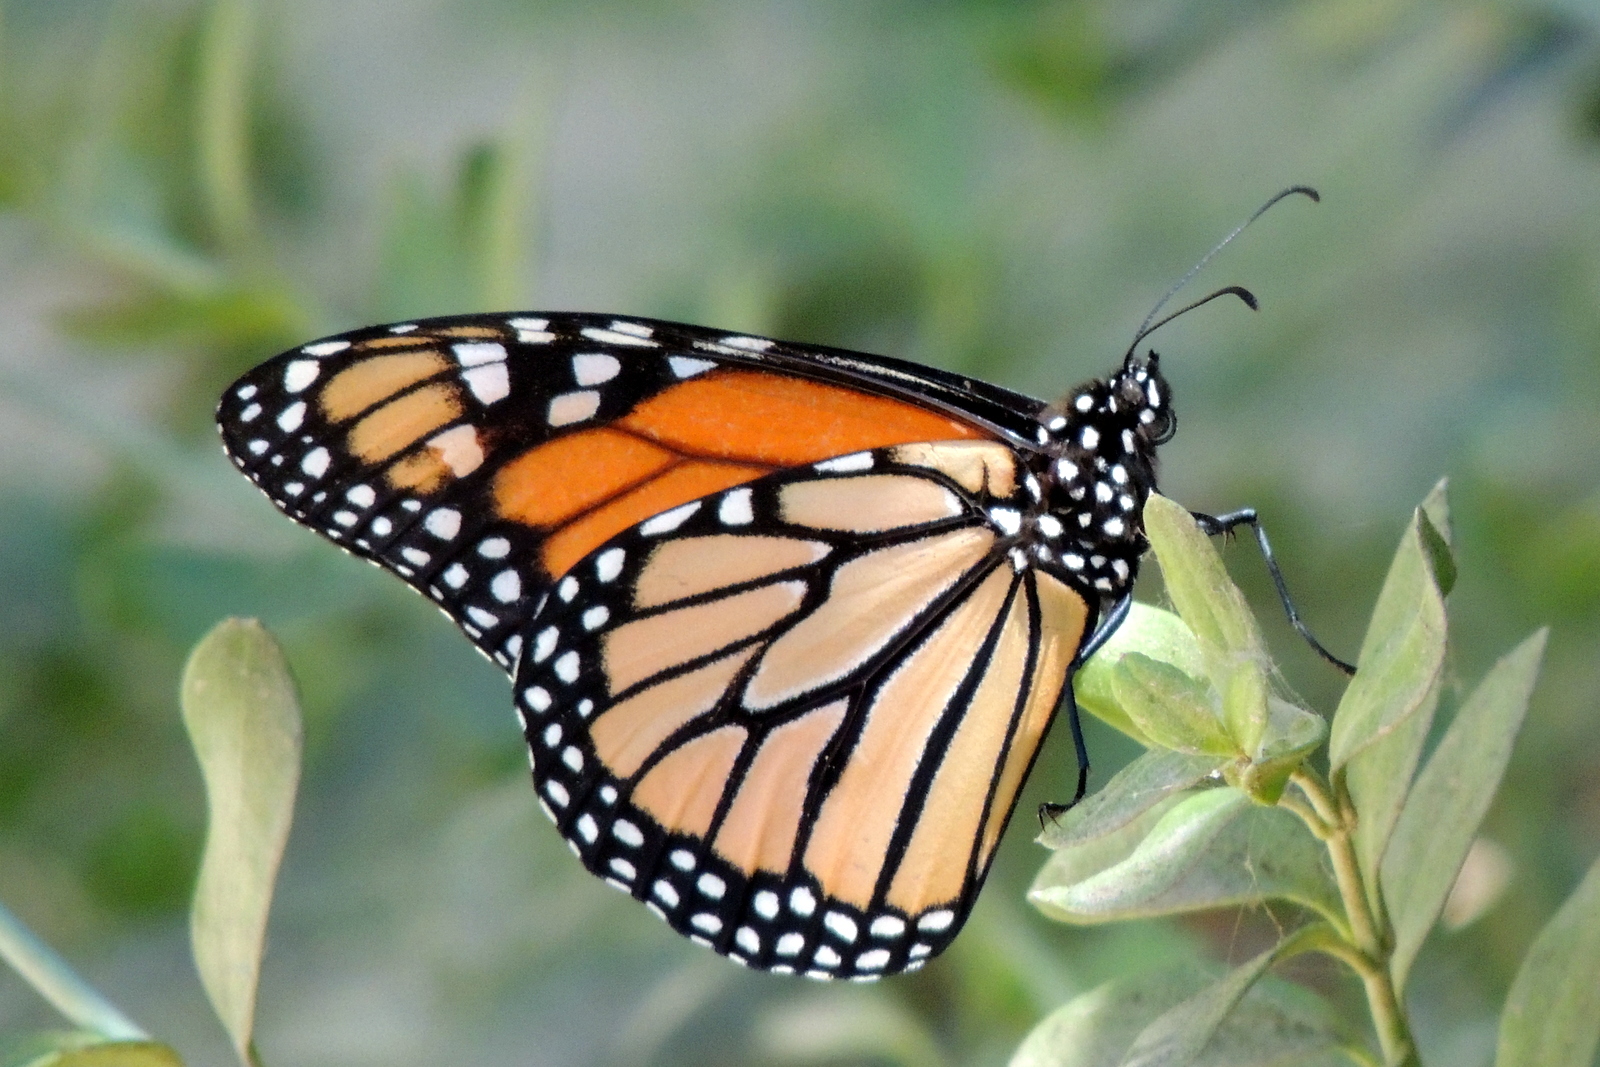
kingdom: Animalia
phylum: Arthropoda
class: Insecta
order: Lepidoptera
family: Nymphalidae
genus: Danaus
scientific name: Danaus plexippus
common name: Monarch
